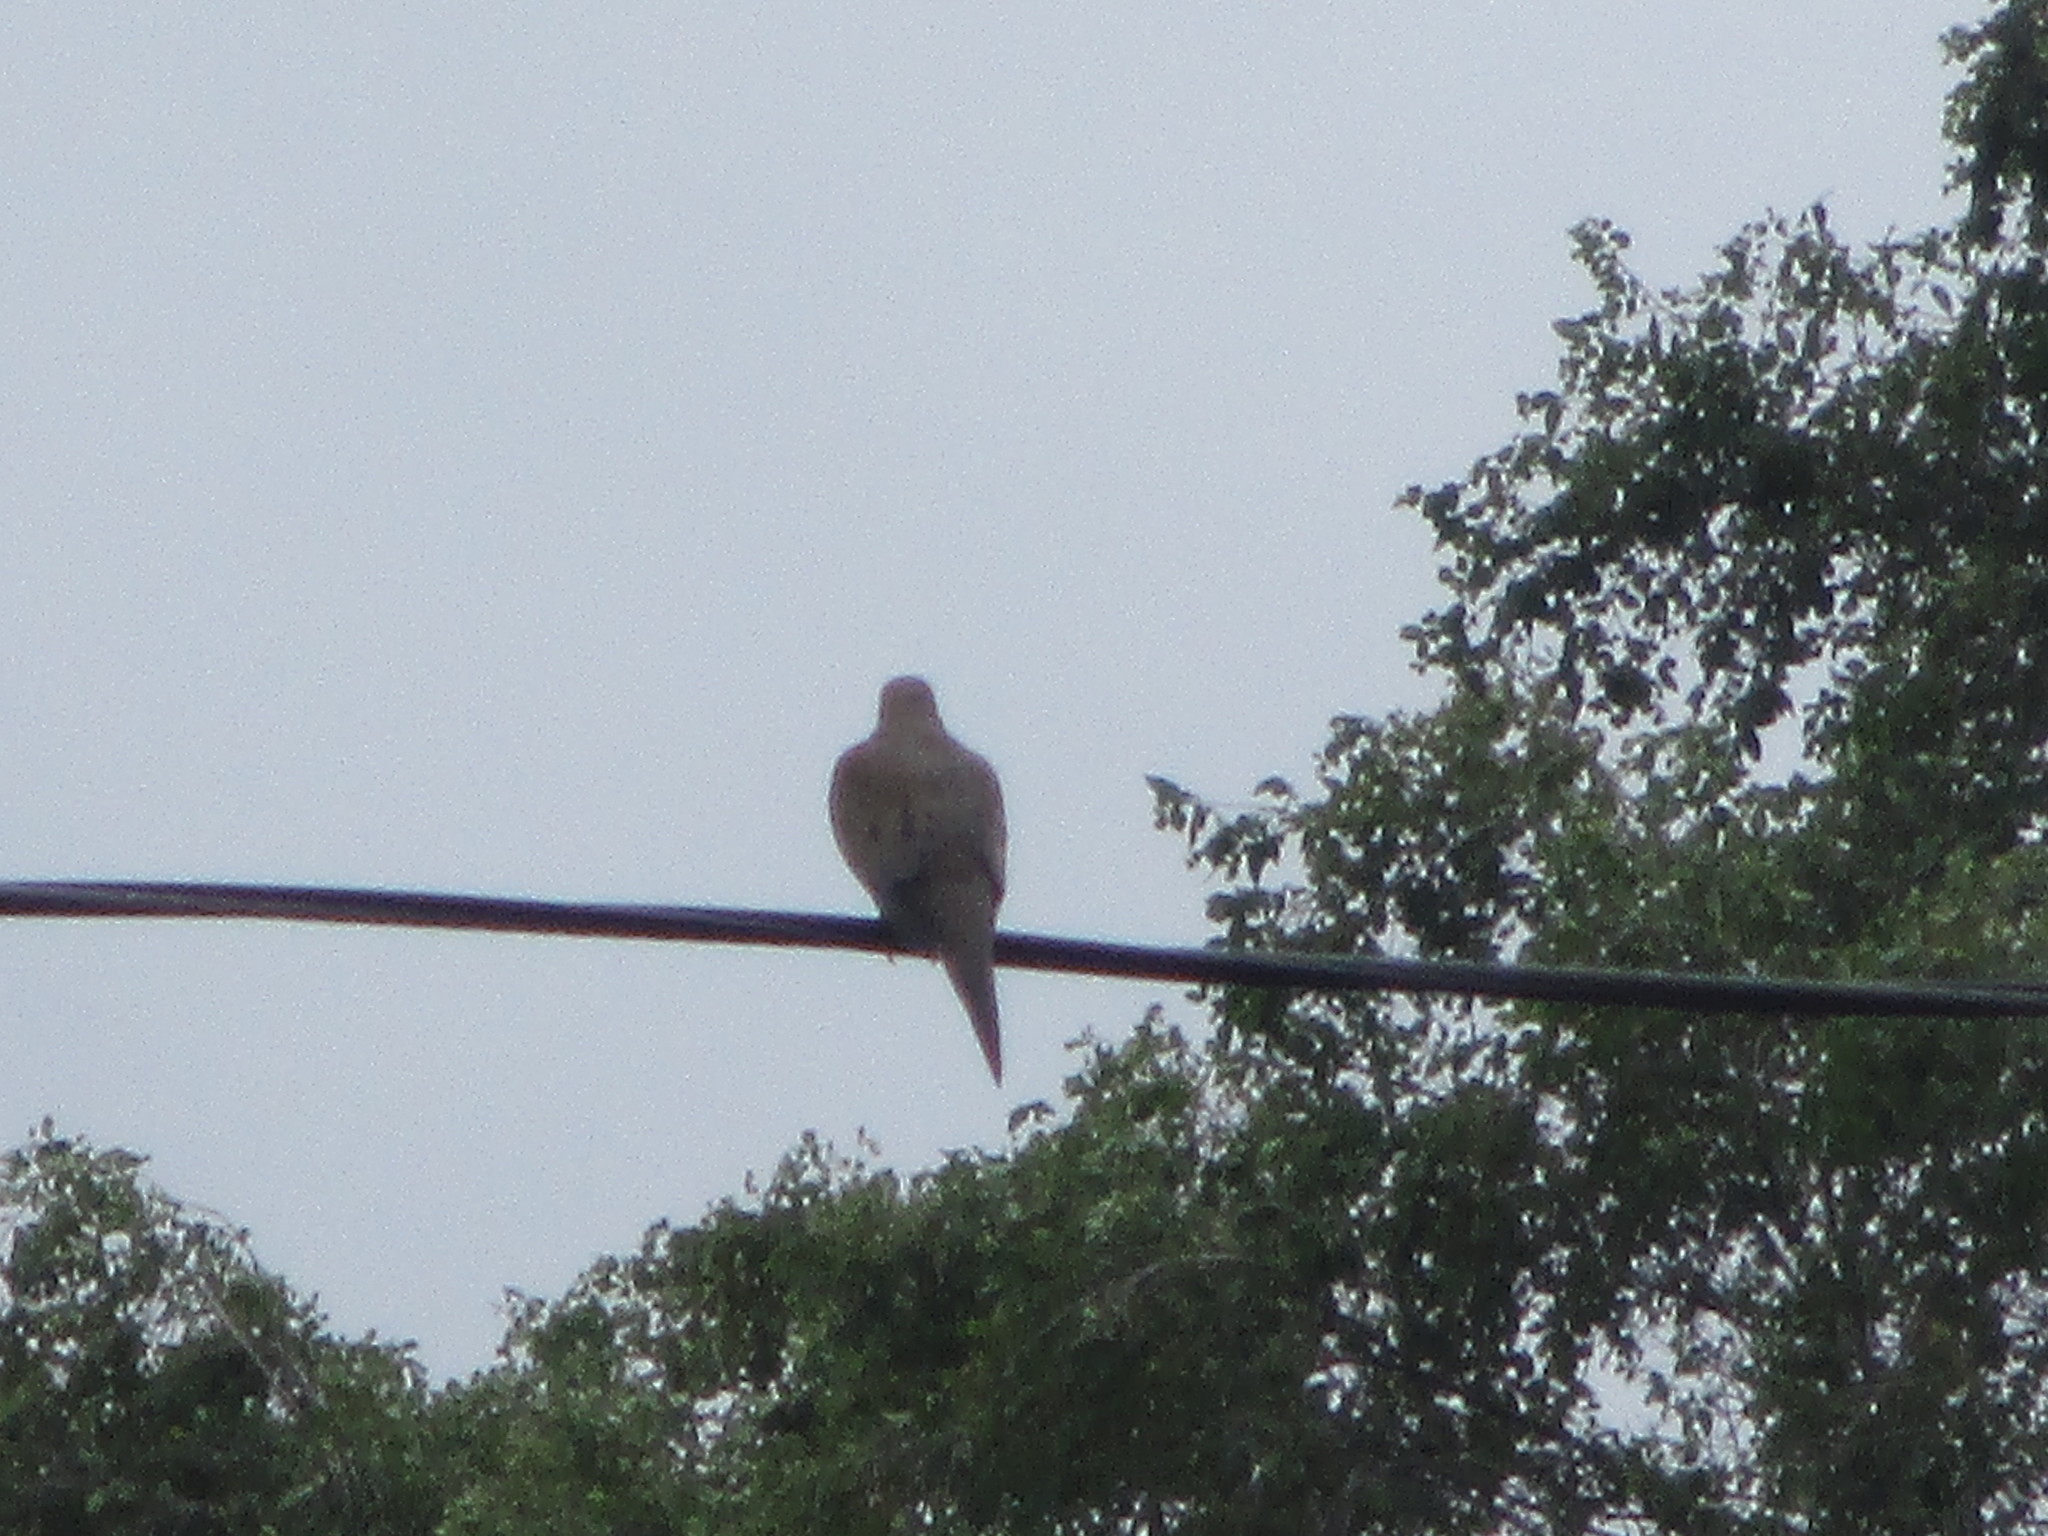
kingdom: Animalia
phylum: Chordata
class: Aves
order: Columbiformes
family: Columbidae
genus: Zenaida
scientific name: Zenaida macroura
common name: Mourning dove
